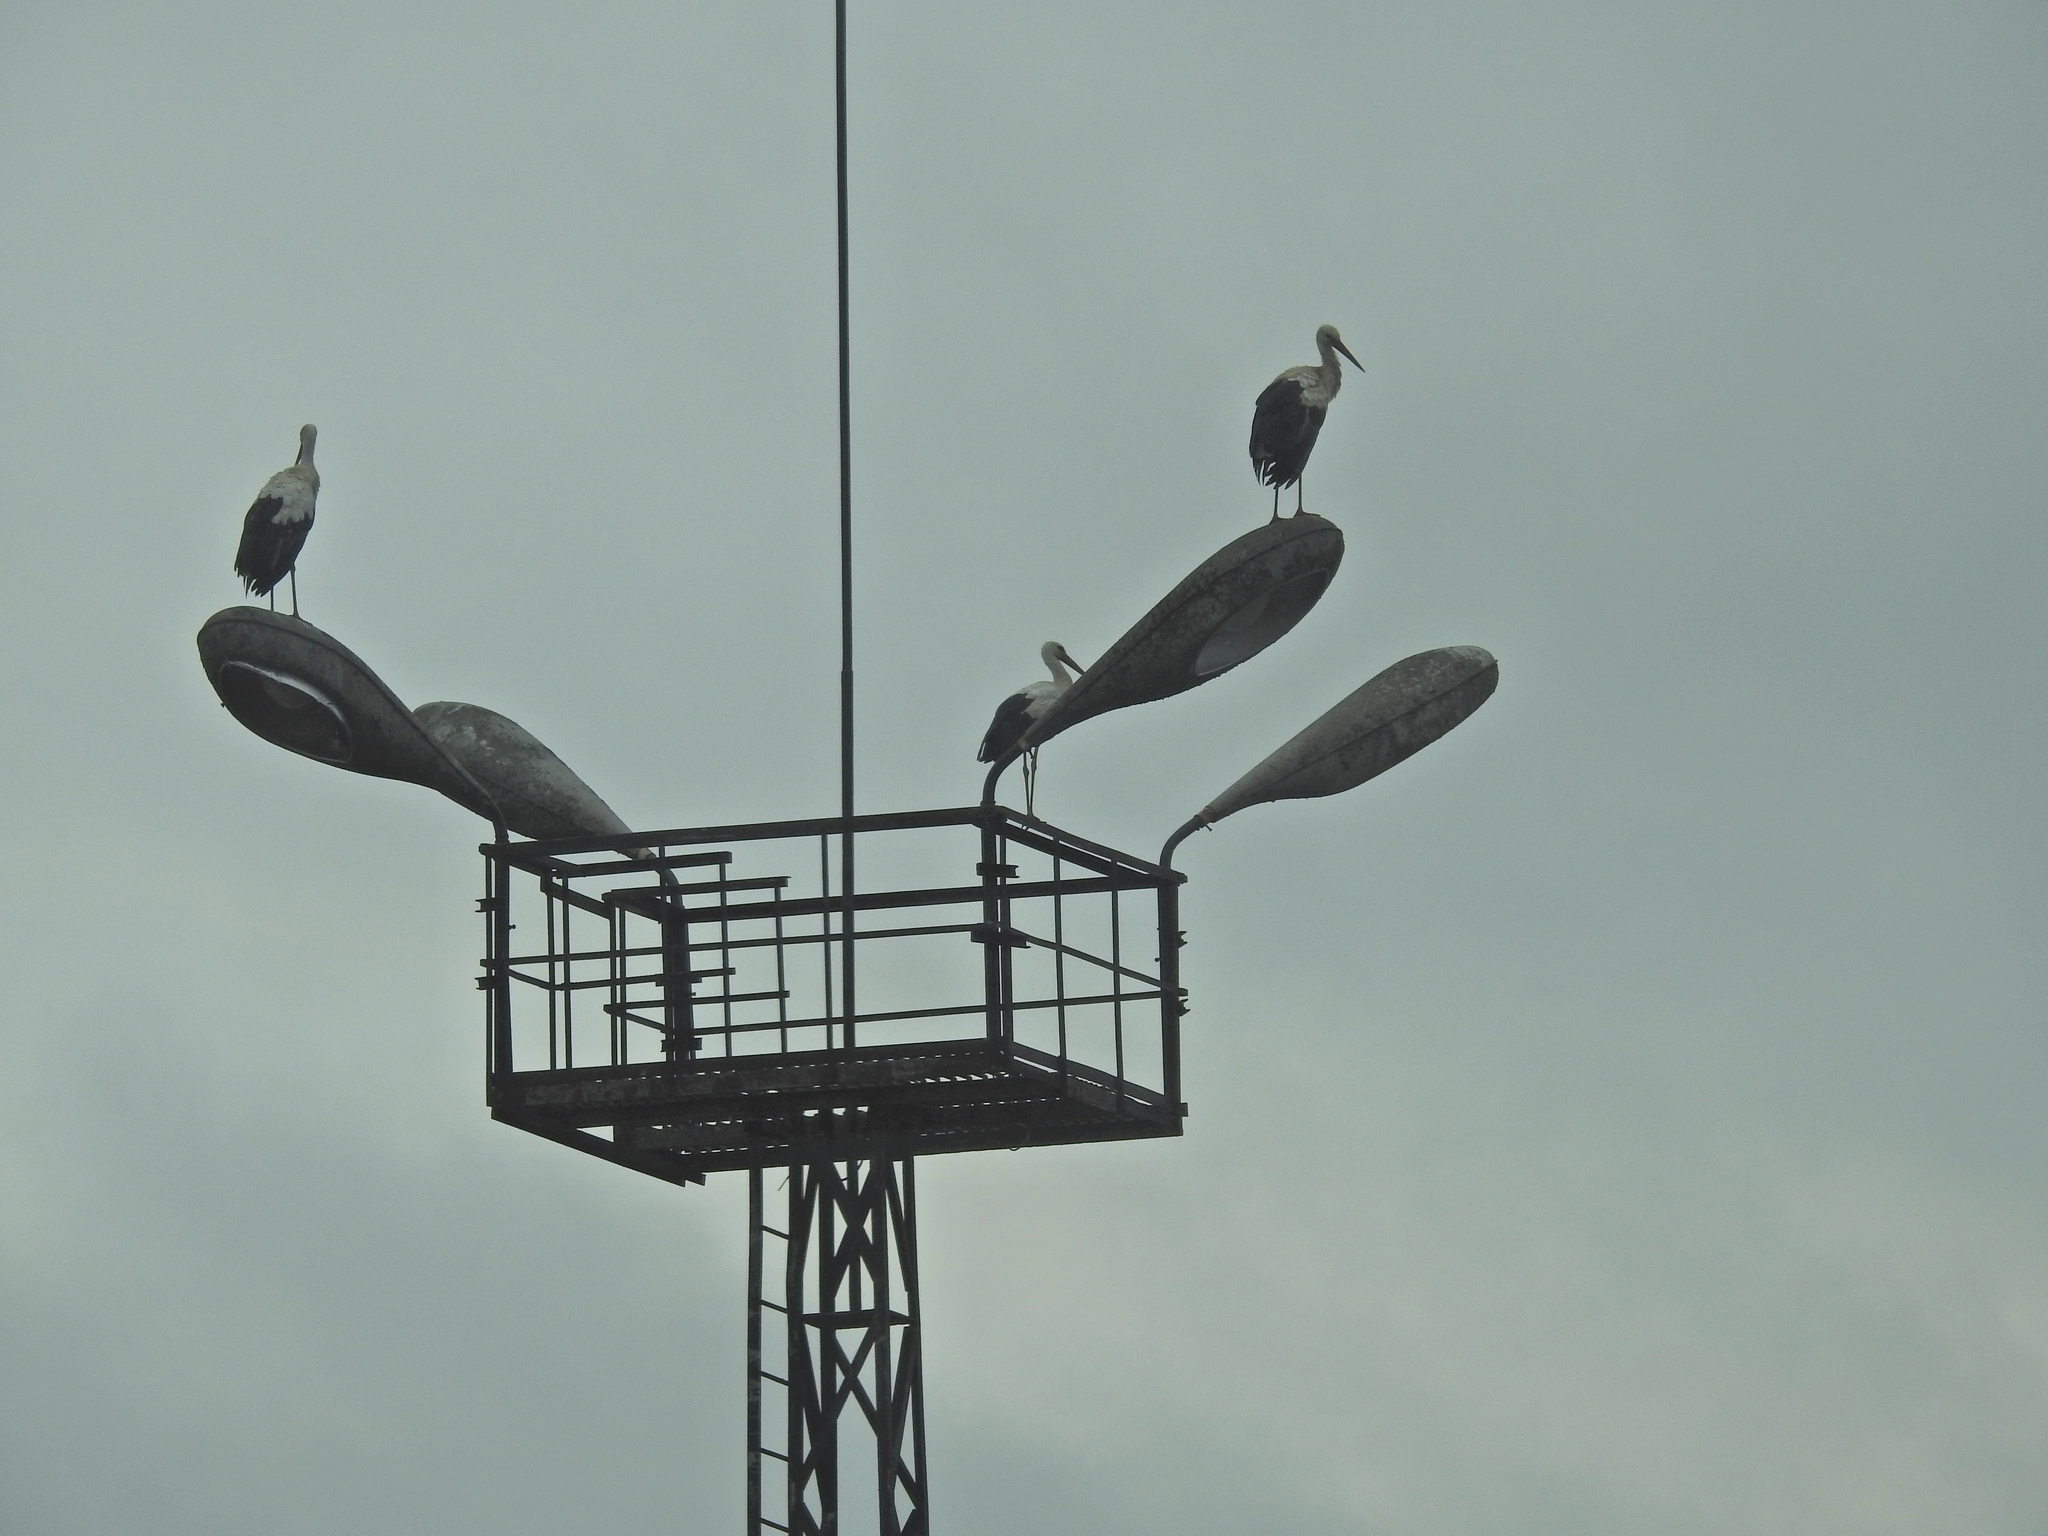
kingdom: Animalia
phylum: Chordata
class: Aves
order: Ciconiiformes
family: Ciconiidae
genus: Ciconia
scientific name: Ciconia ciconia
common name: White stork
